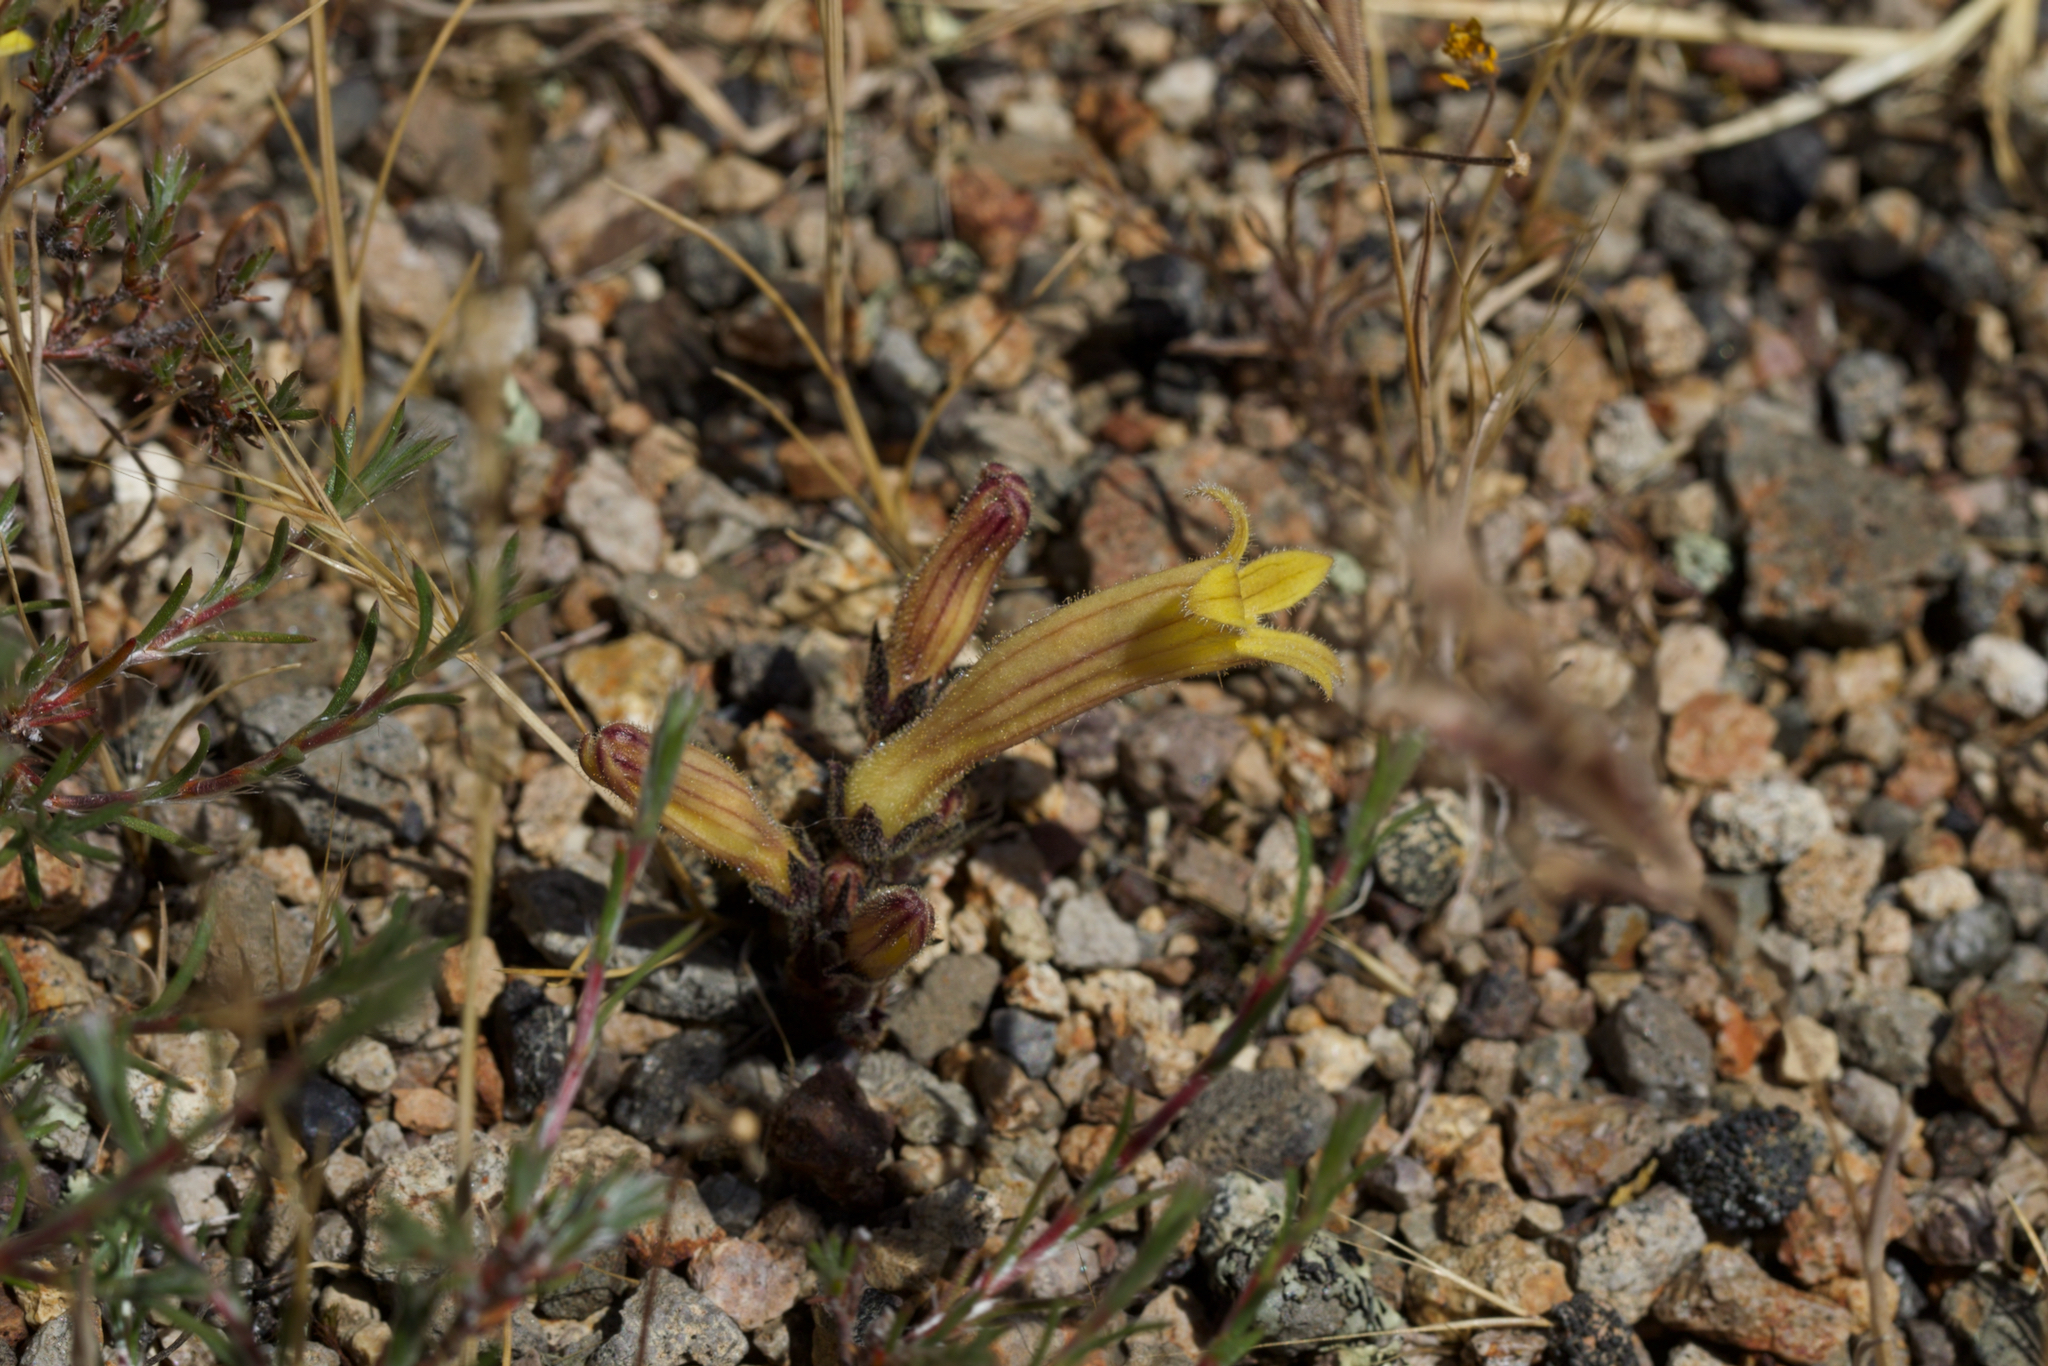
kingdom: Plantae
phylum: Tracheophyta
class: Magnoliopsida
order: Lamiales
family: Orobanchaceae
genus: Aphyllon
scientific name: Aphyllon franciscanum
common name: San francisco broomrape
